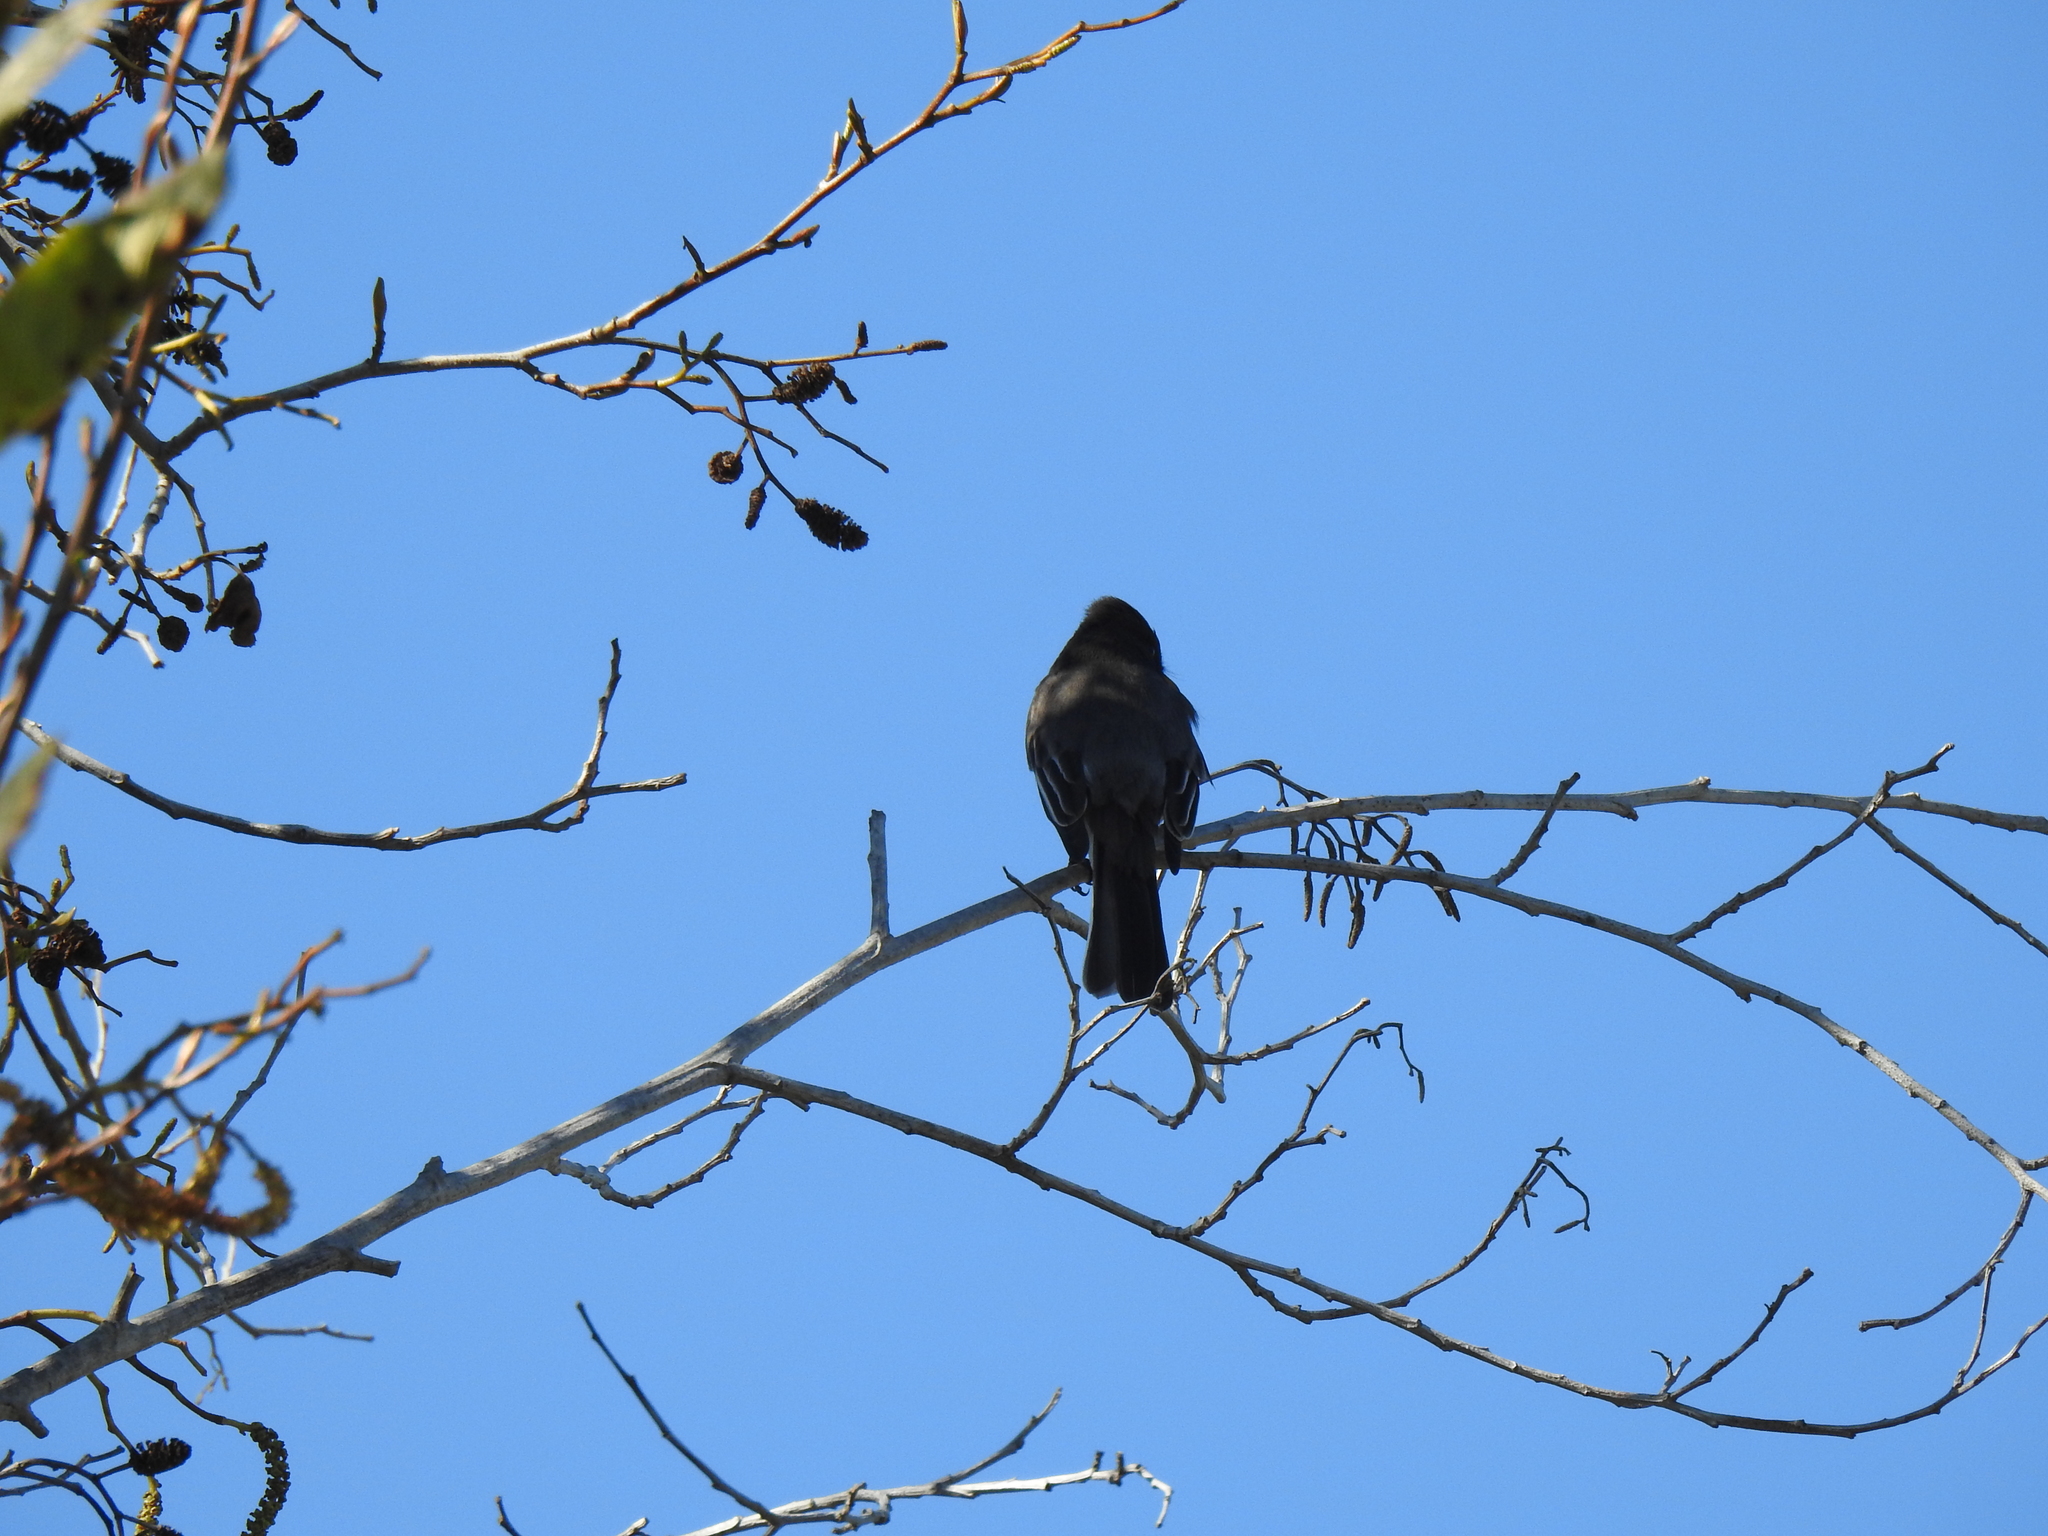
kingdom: Animalia
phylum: Chordata
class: Aves
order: Passeriformes
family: Tyrannidae
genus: Sayornis
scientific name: Sayornis nigricans
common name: Black phoebe
